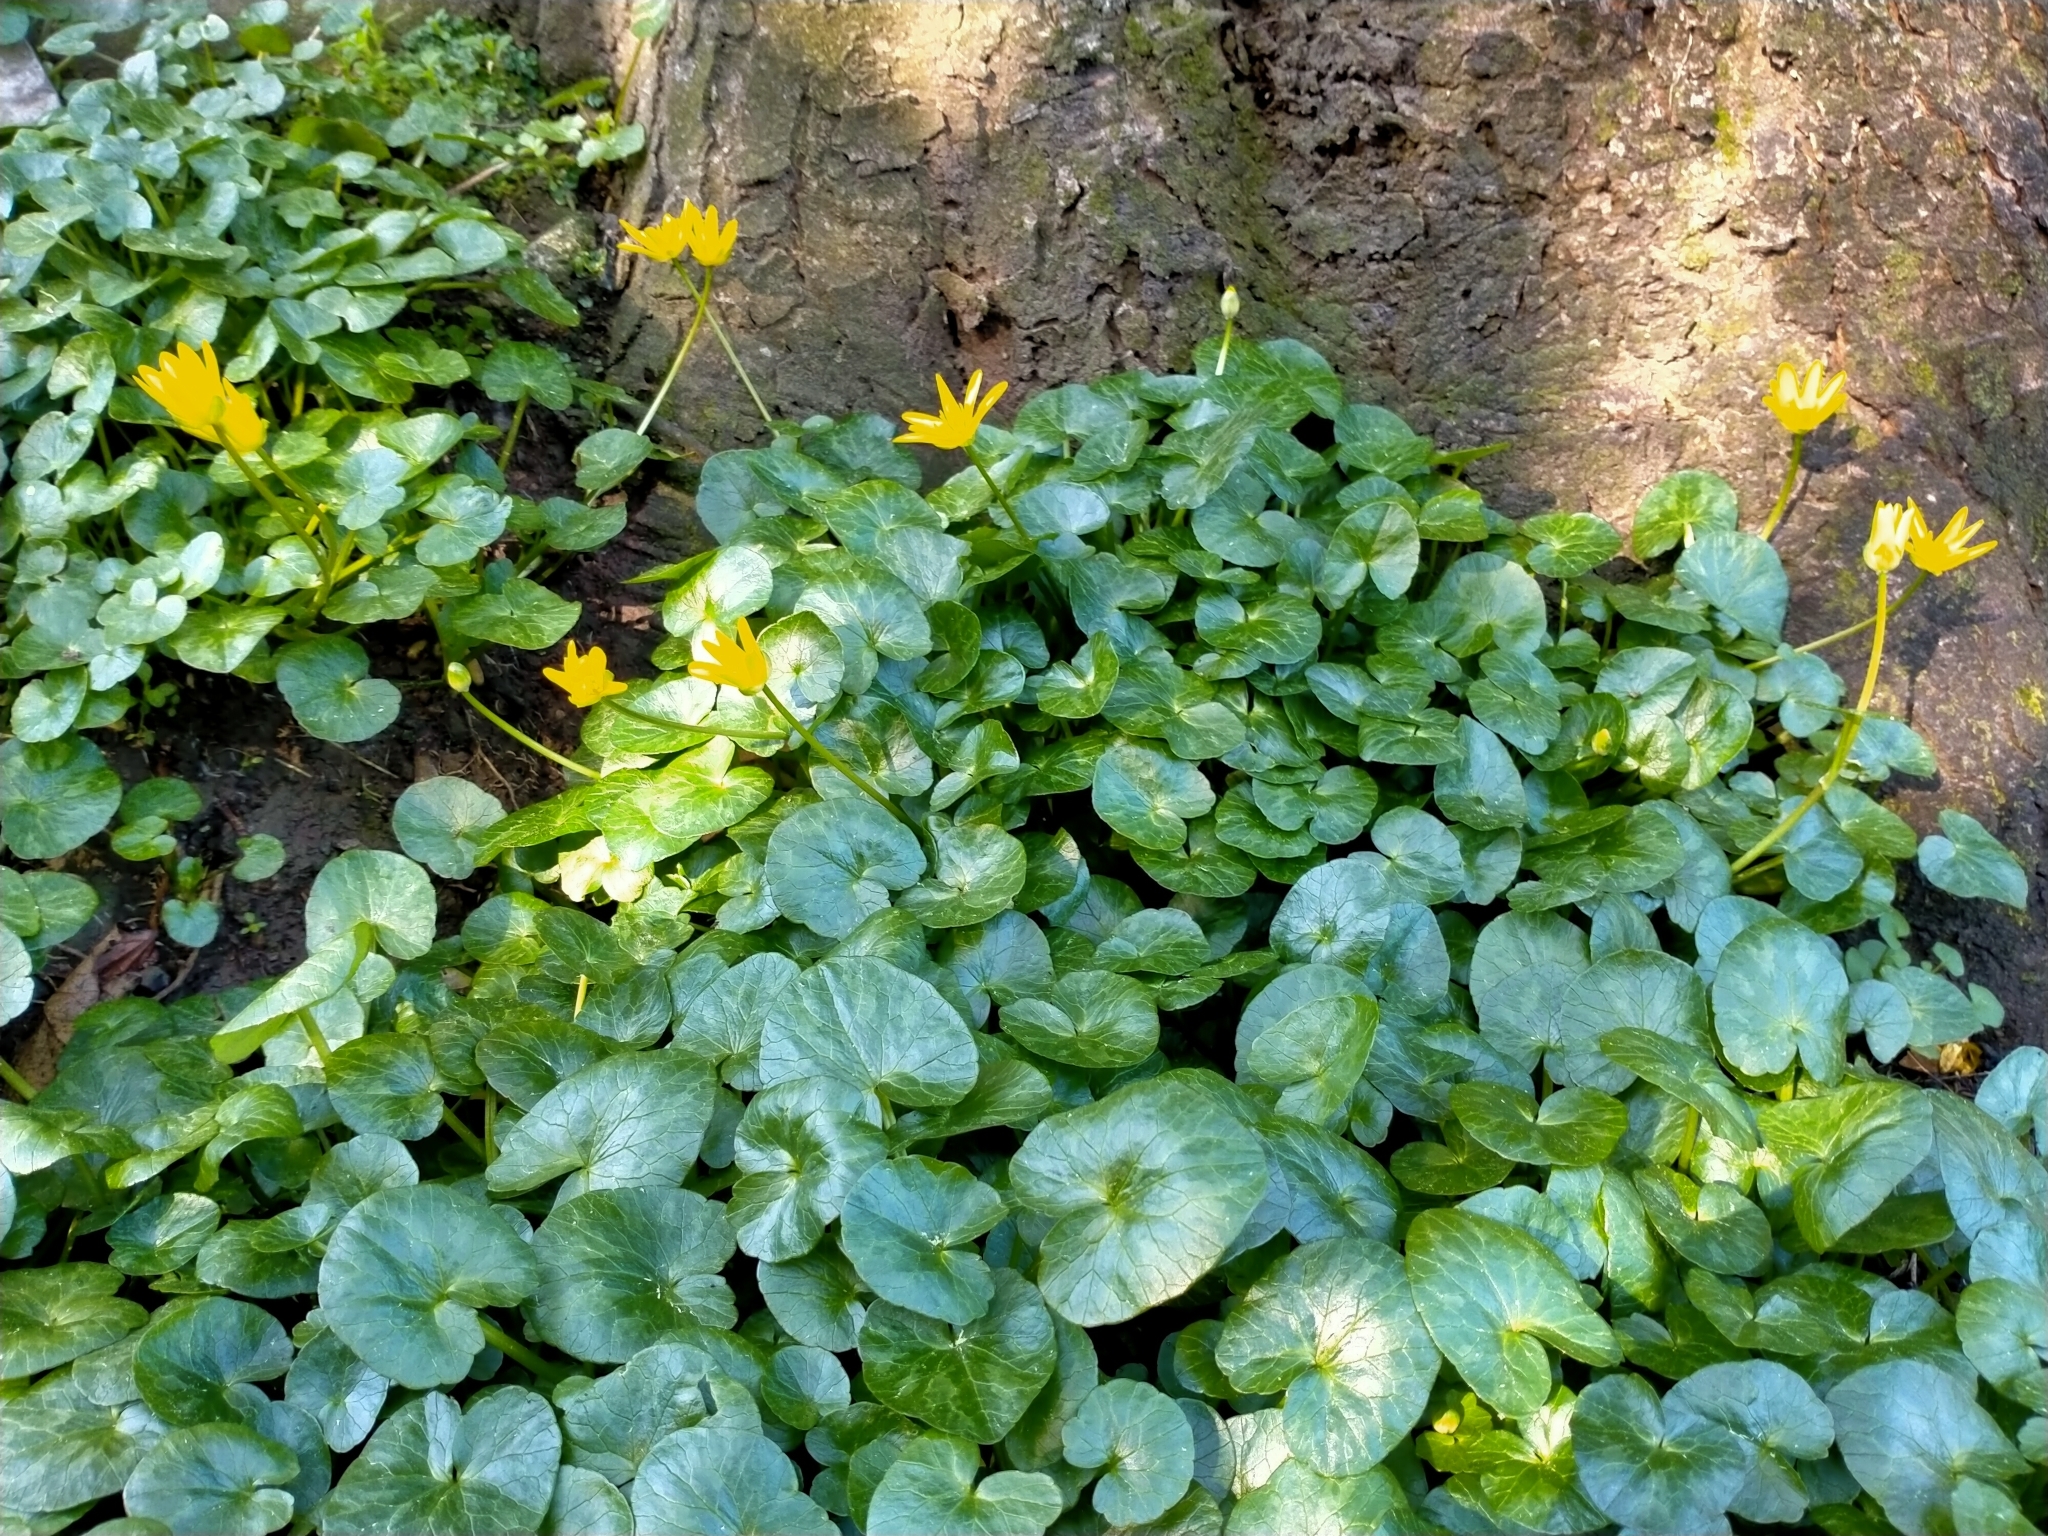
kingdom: Plantae
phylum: Tracheophyta
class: Magnoliopsida
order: Ranunculales
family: Ranunculaceae
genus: Ficaria
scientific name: Ficaria verna
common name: Lesser celandine
